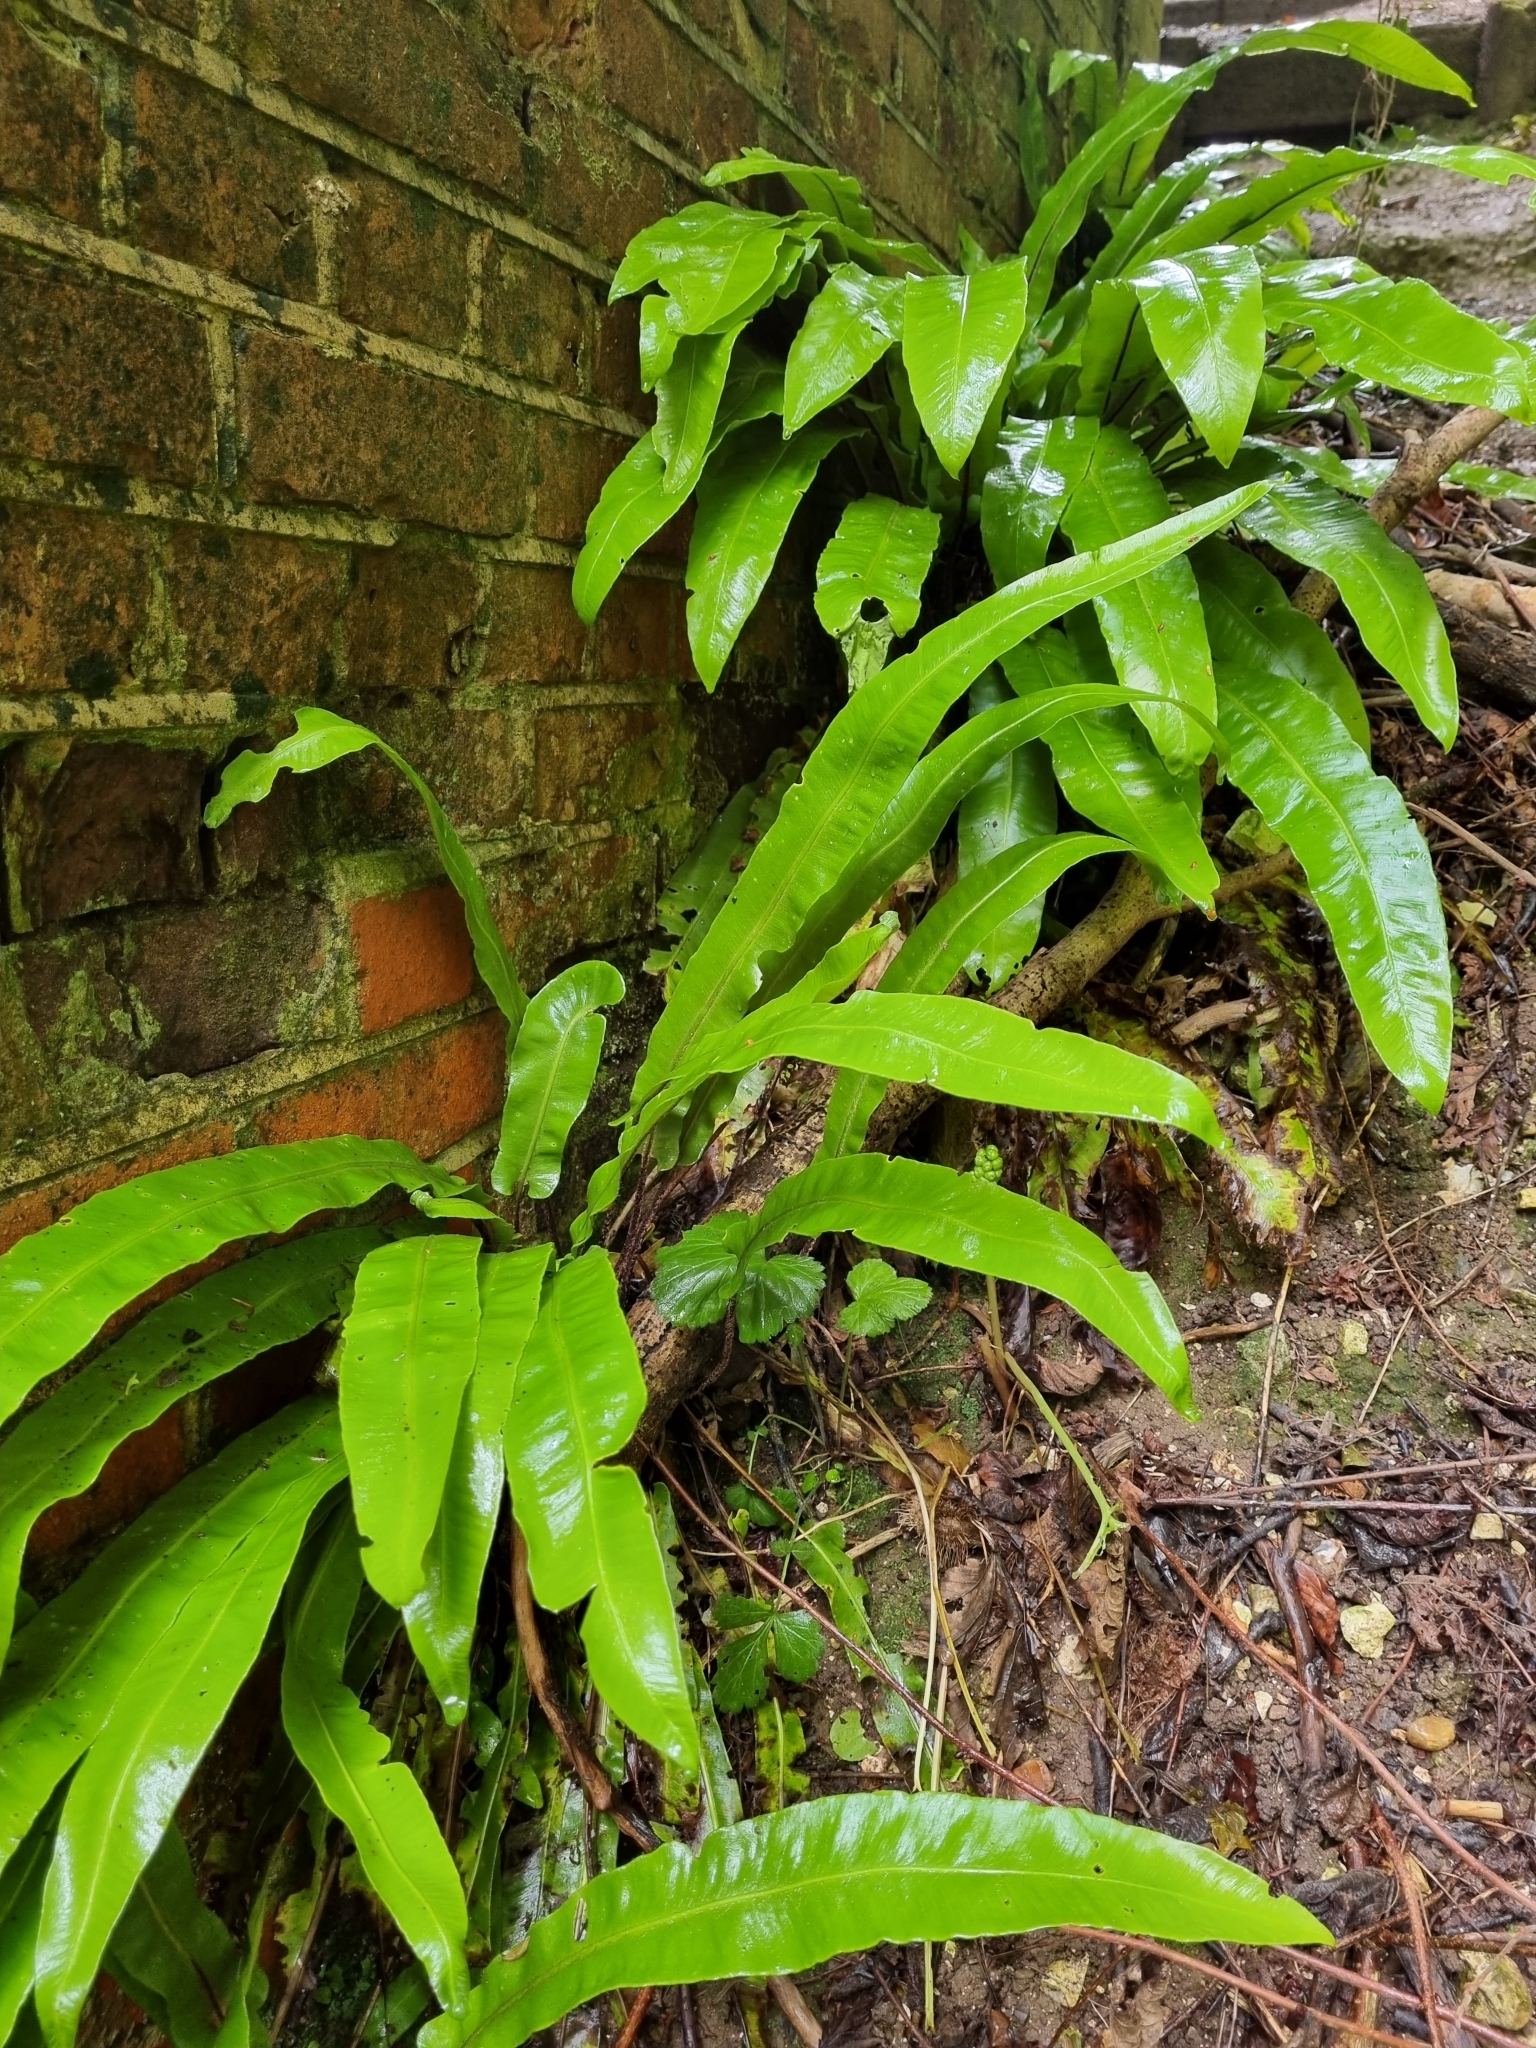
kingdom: Plantae
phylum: Tracheophyta
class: Polypodiopsida
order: Polypodiales
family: Aspleniaceae
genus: Asplenium
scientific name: Asplenium scolopendrium
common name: Hart's-tongue fern
